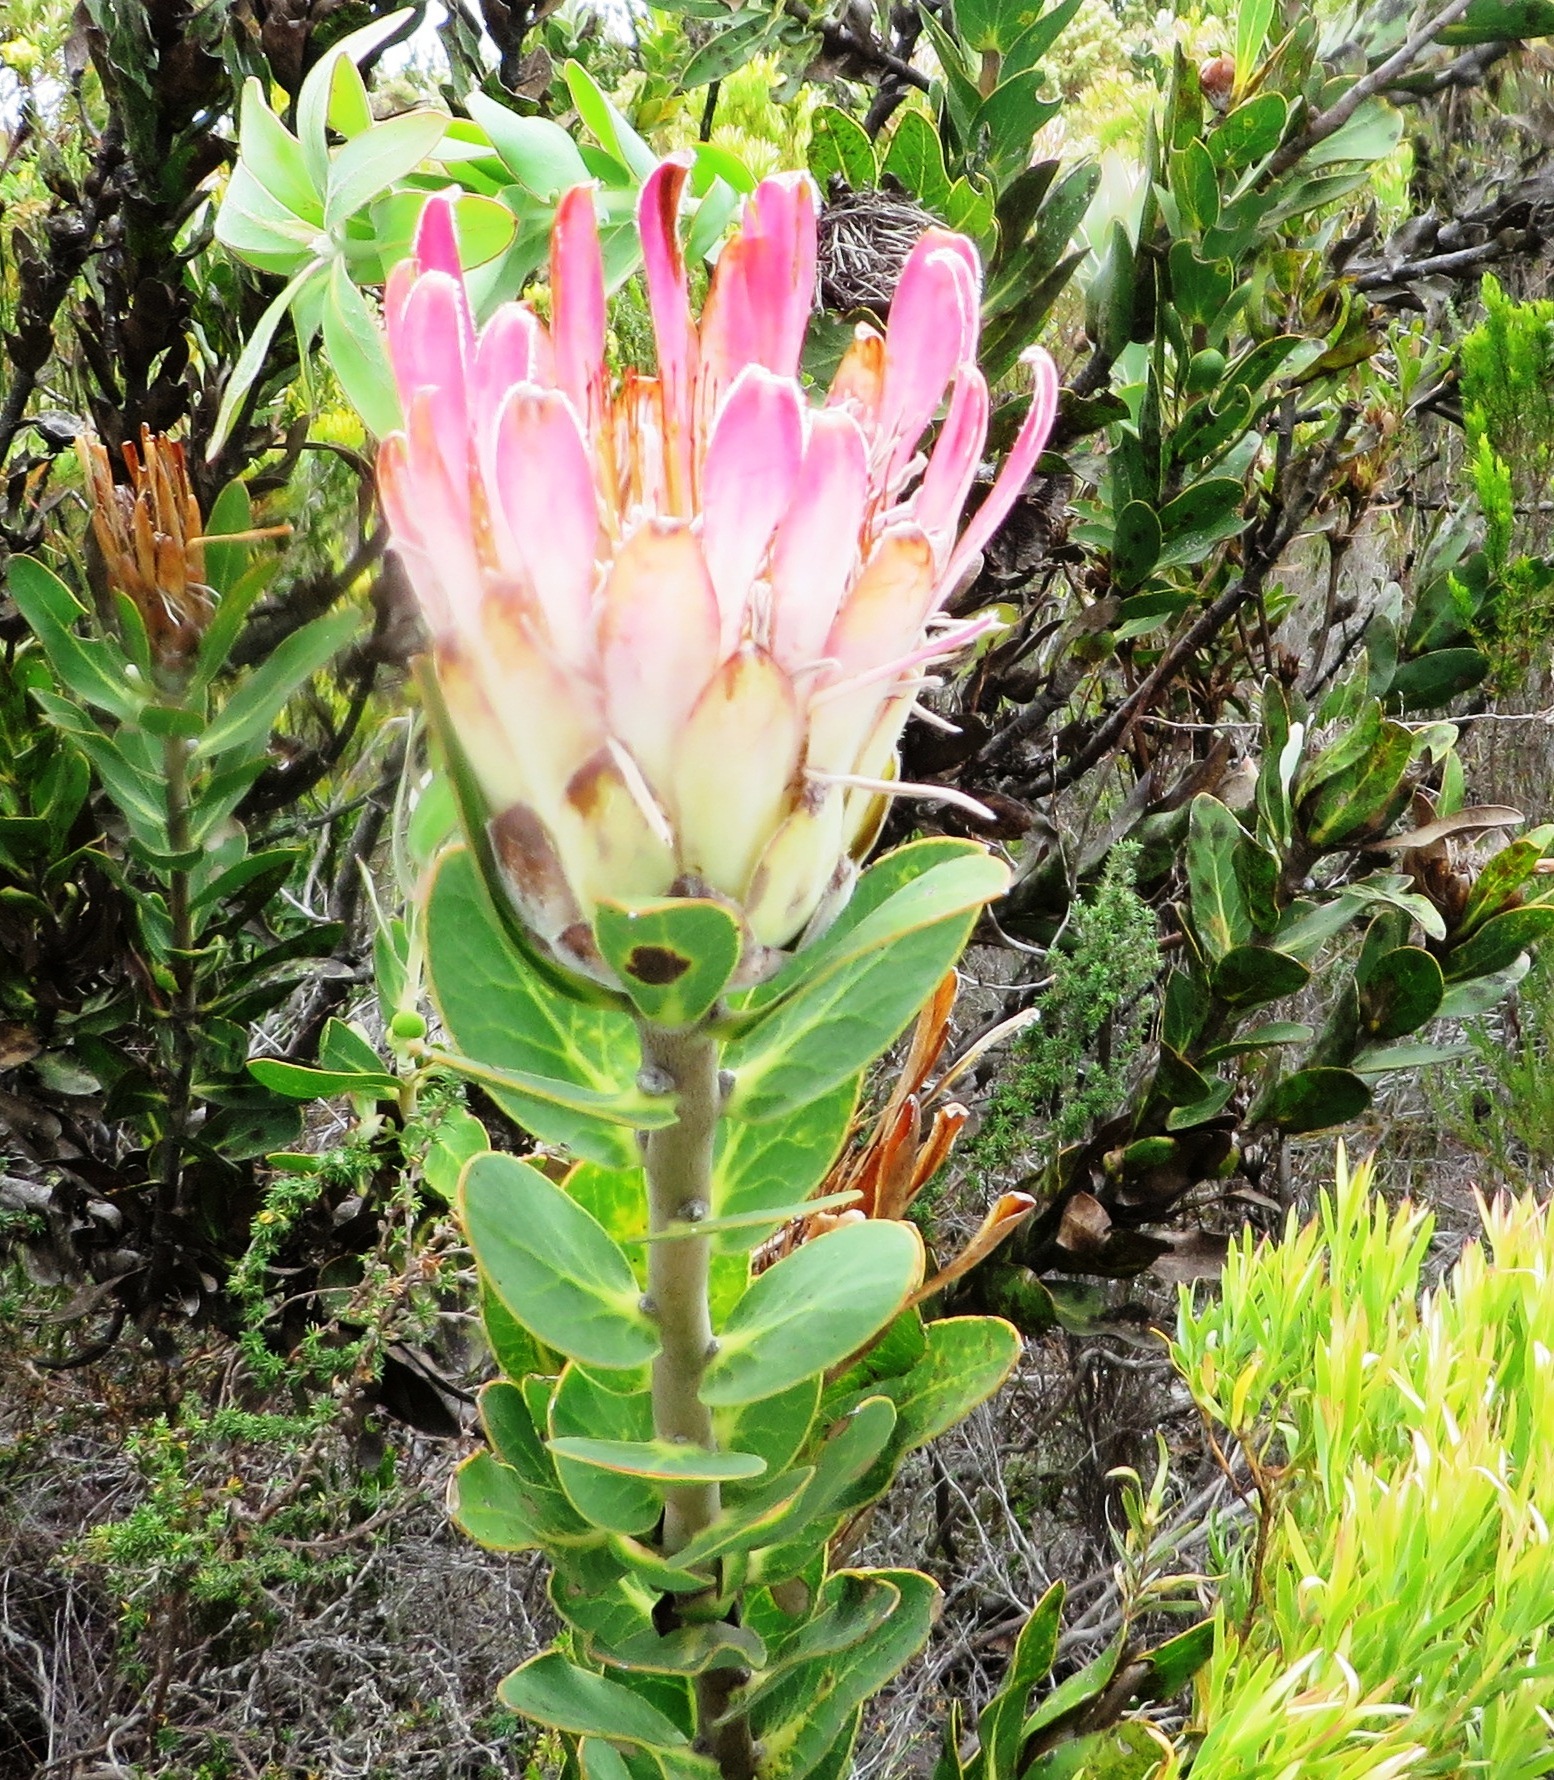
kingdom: Plantae
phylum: Tracheophyta
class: Magnoliopsida
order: Proteales
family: Proteaceae
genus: Protea
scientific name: Protea compacta
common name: Bot river protea
